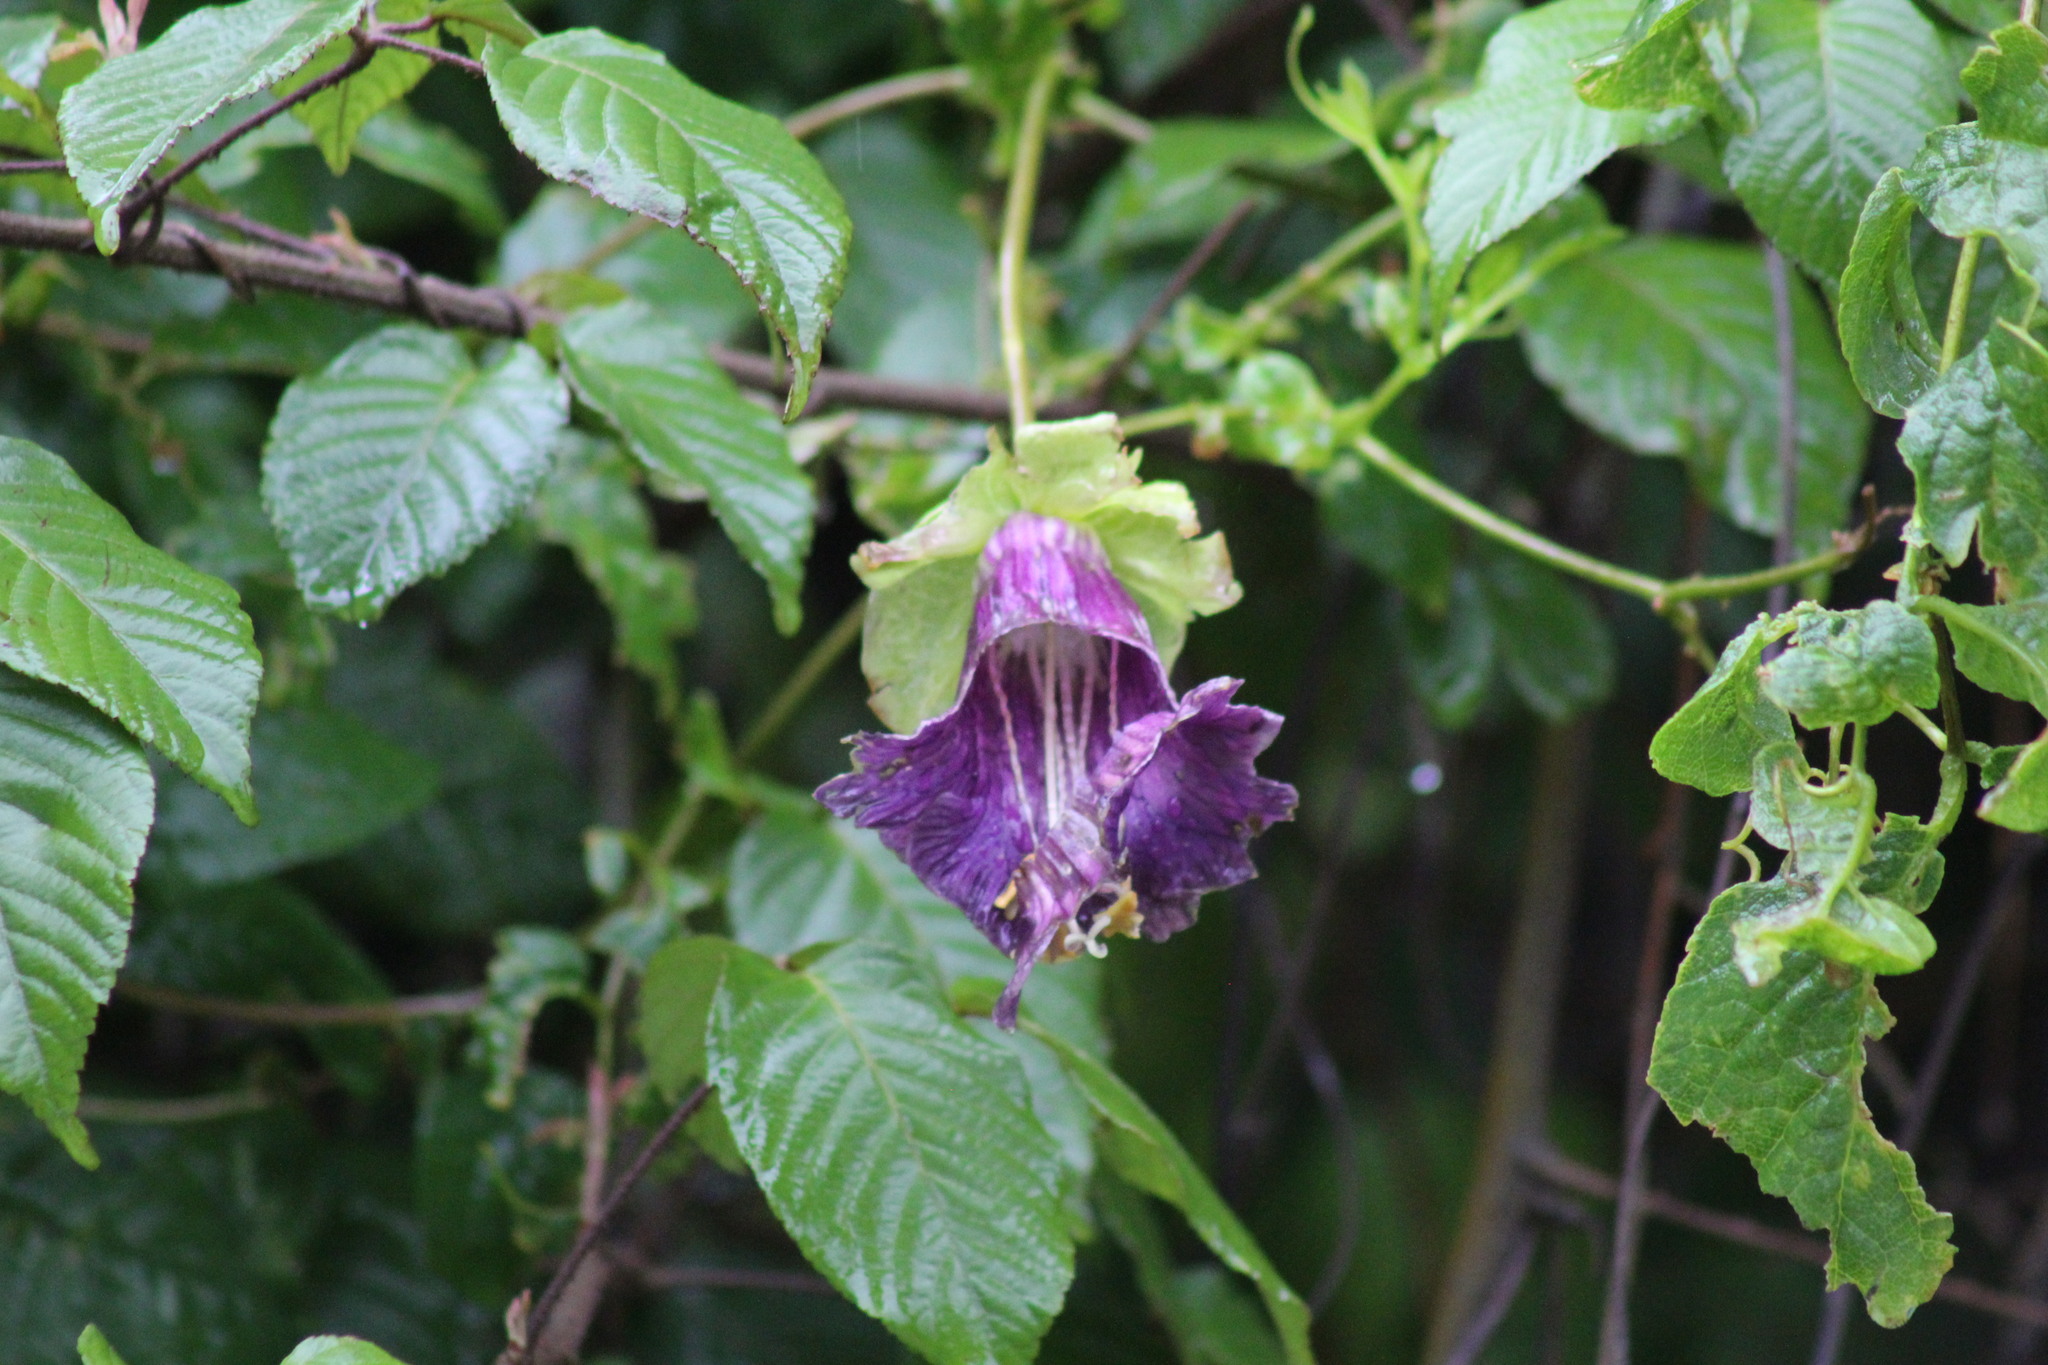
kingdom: Plantae
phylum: Tracheophyta
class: Magnoliopsida
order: Ericales
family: Polemoniaceae
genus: Cobaea
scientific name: Cobaea scandens
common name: Cup-and-saucer-vine
